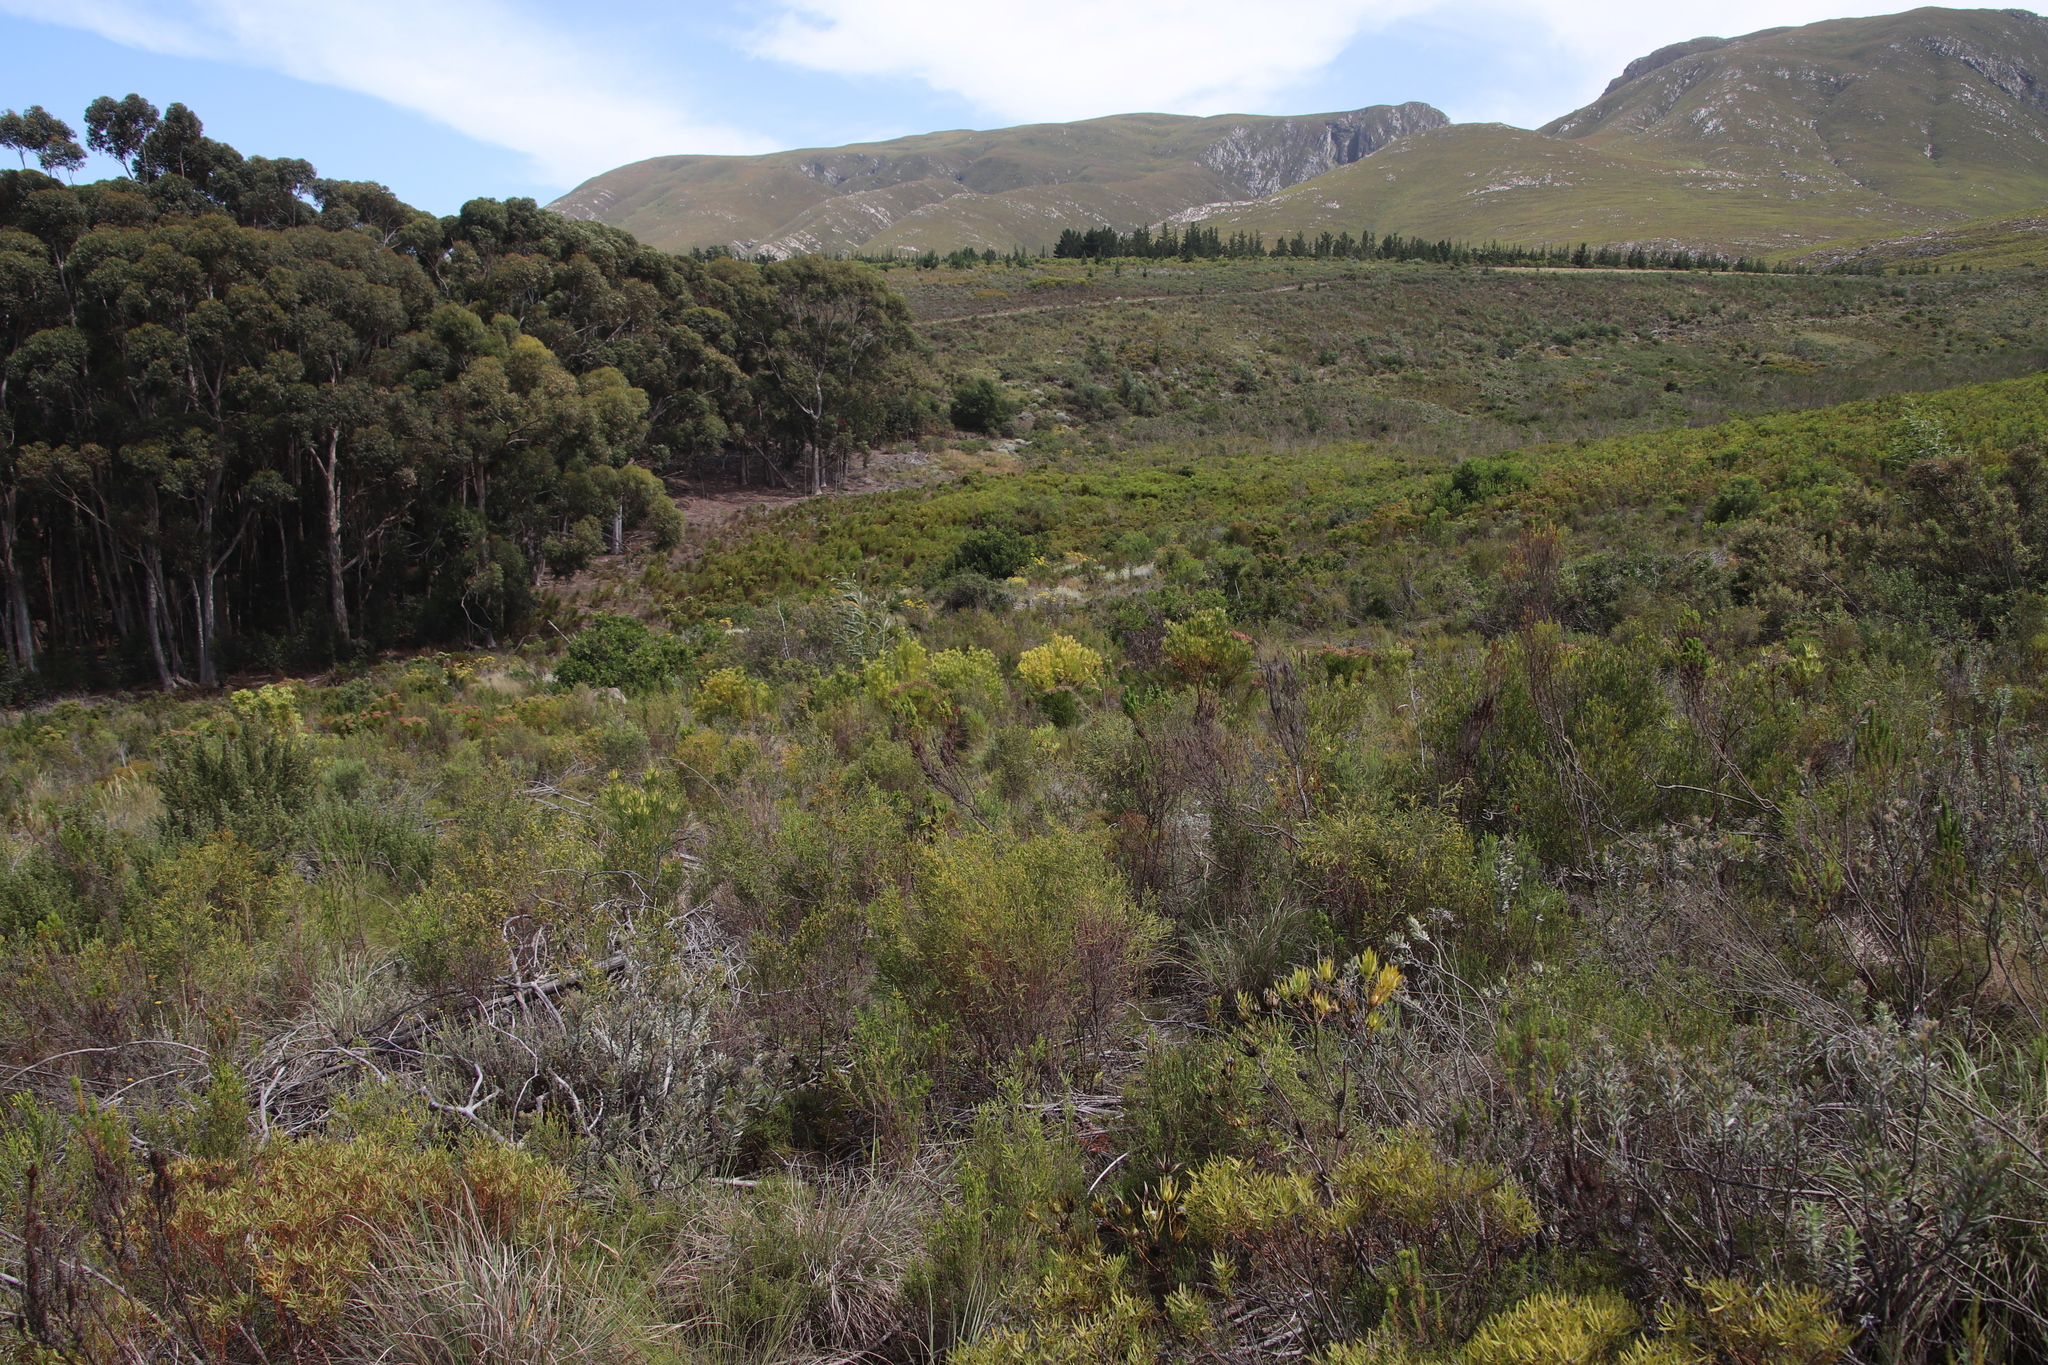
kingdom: Plantae
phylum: Tracheophyta
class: Magnoliopsida
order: Proteales
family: Proteaceae
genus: Leucadendron
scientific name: Leucadendron xanthoconus
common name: Sickle-leaf conebush
